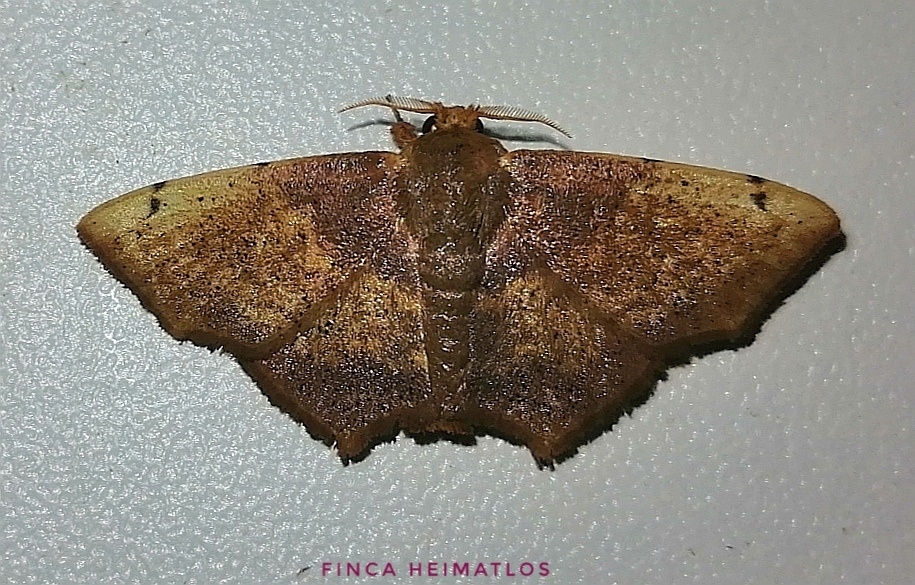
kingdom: Animalia
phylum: Arthropoda
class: Insecta
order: Lepidoptera
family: Mimallonidae
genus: Zaphanta
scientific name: Zaphanta rawlinsi
